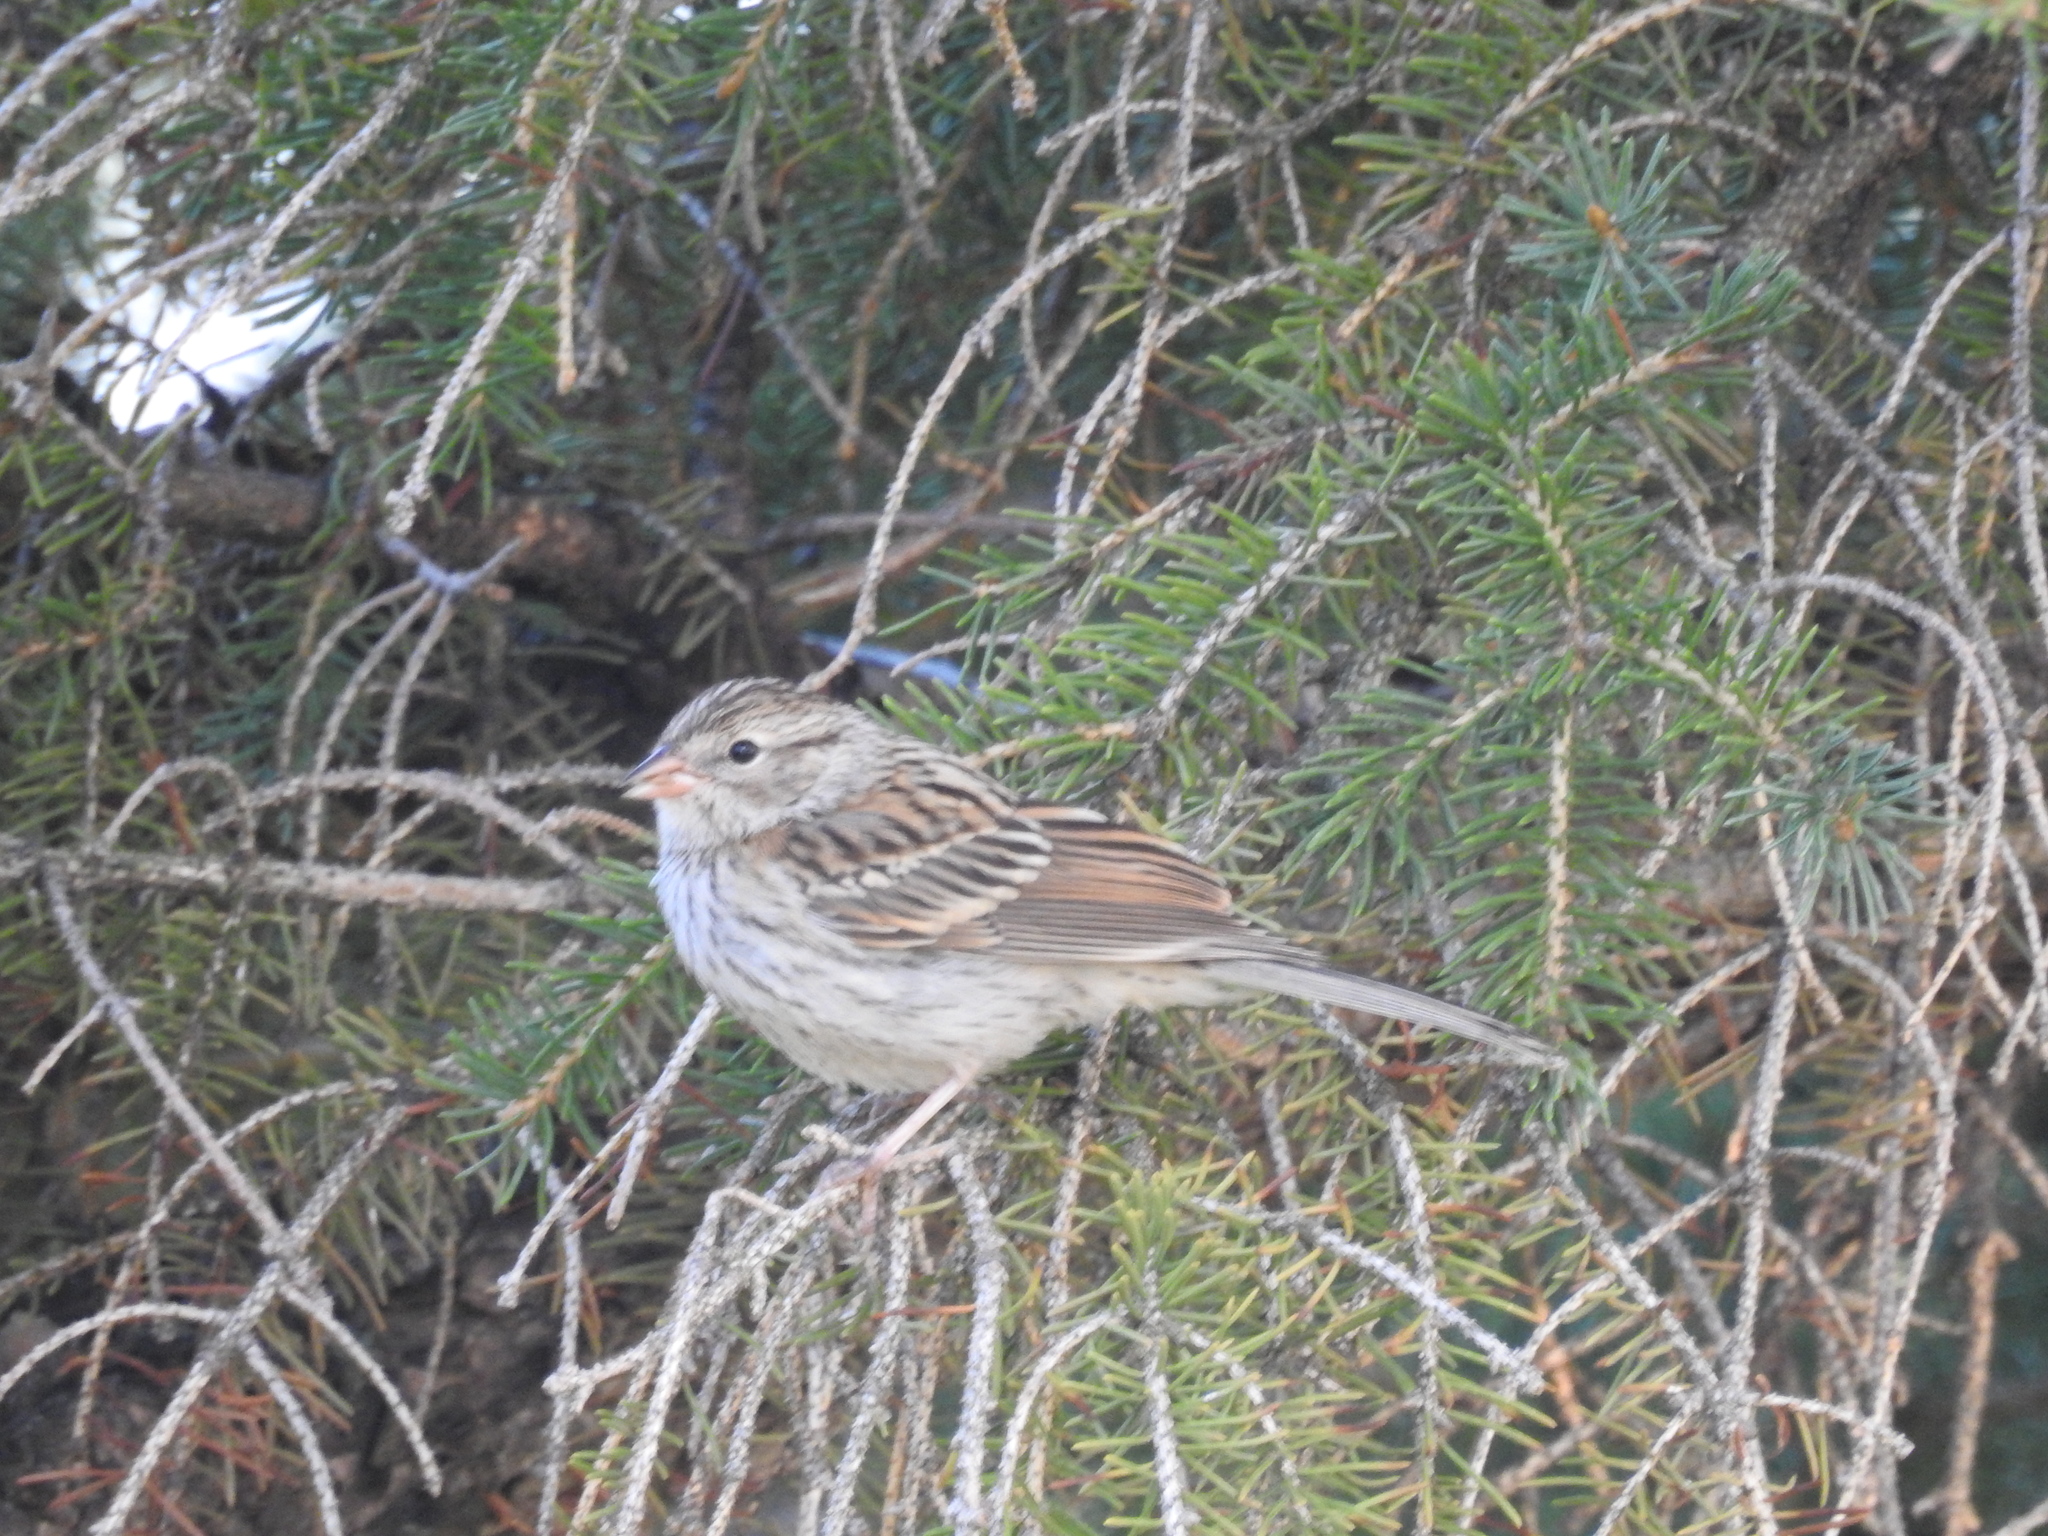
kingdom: Animalia
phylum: Chordata
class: Aves
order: Passeriformes
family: Passerellidae
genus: Spizella
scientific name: Spizella passerina
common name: Chipping sparrow
